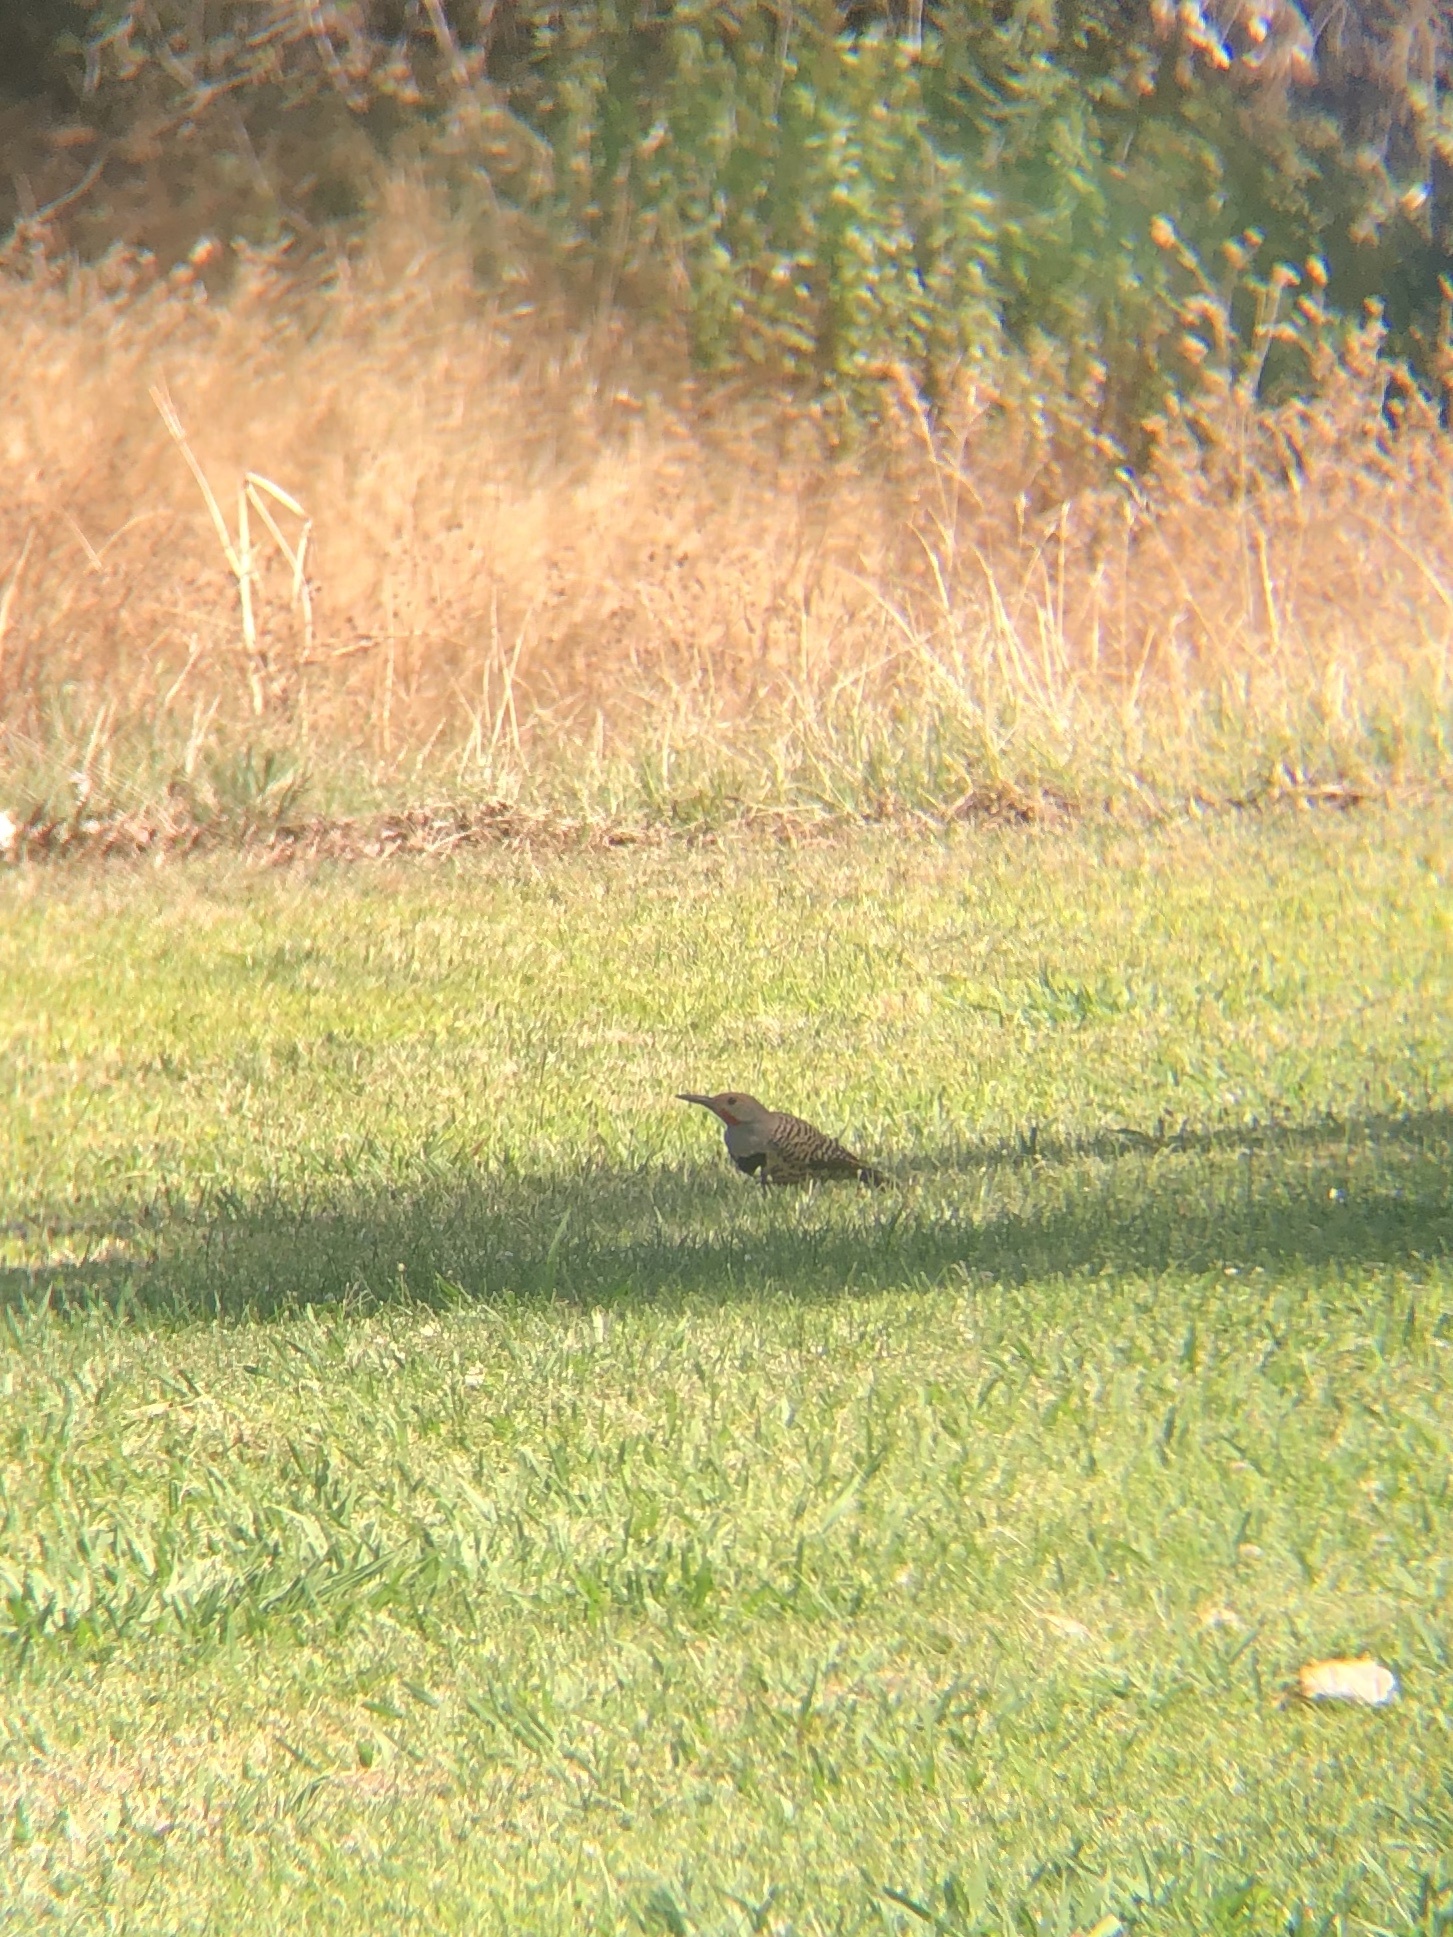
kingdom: Animalia
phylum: Chordata
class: Aves
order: Piciformes
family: Picidae
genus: Colaptes
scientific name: Colaptes auratus
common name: Northern flicker
